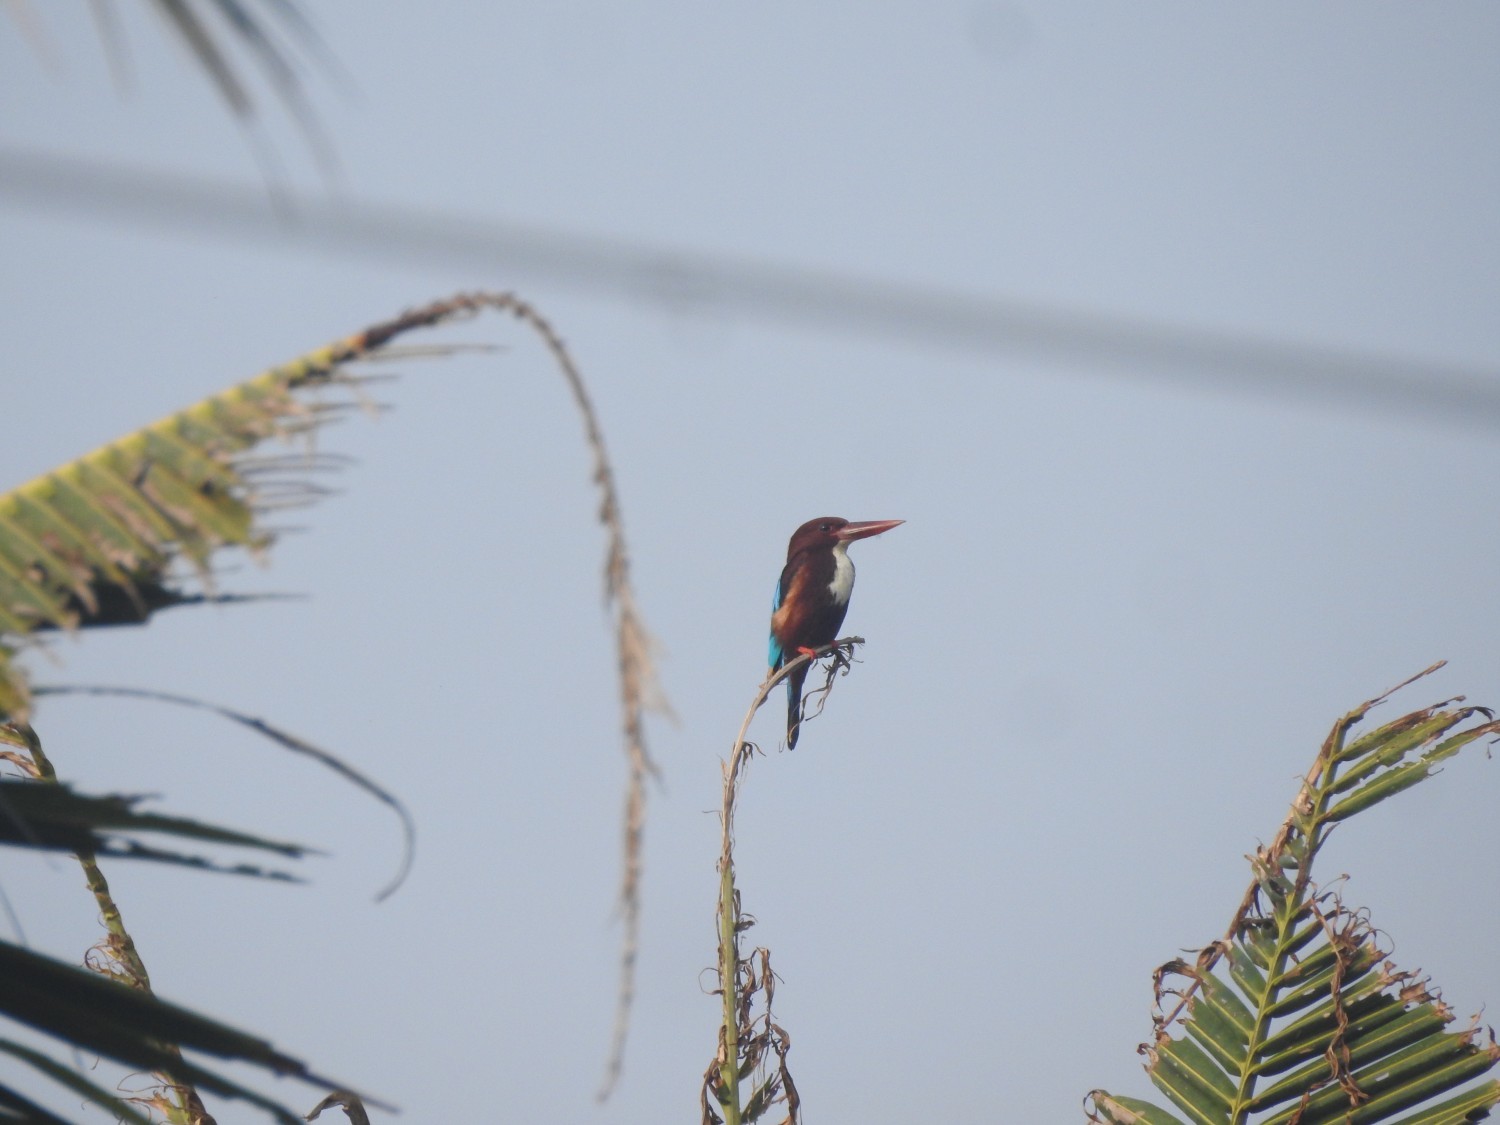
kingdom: Animalia
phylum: Chordata
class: Aves
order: Coraciiformes
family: Alcedinidae
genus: Halcyon
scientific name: Halcyon smyrnensis
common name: White-throated kingfisher
